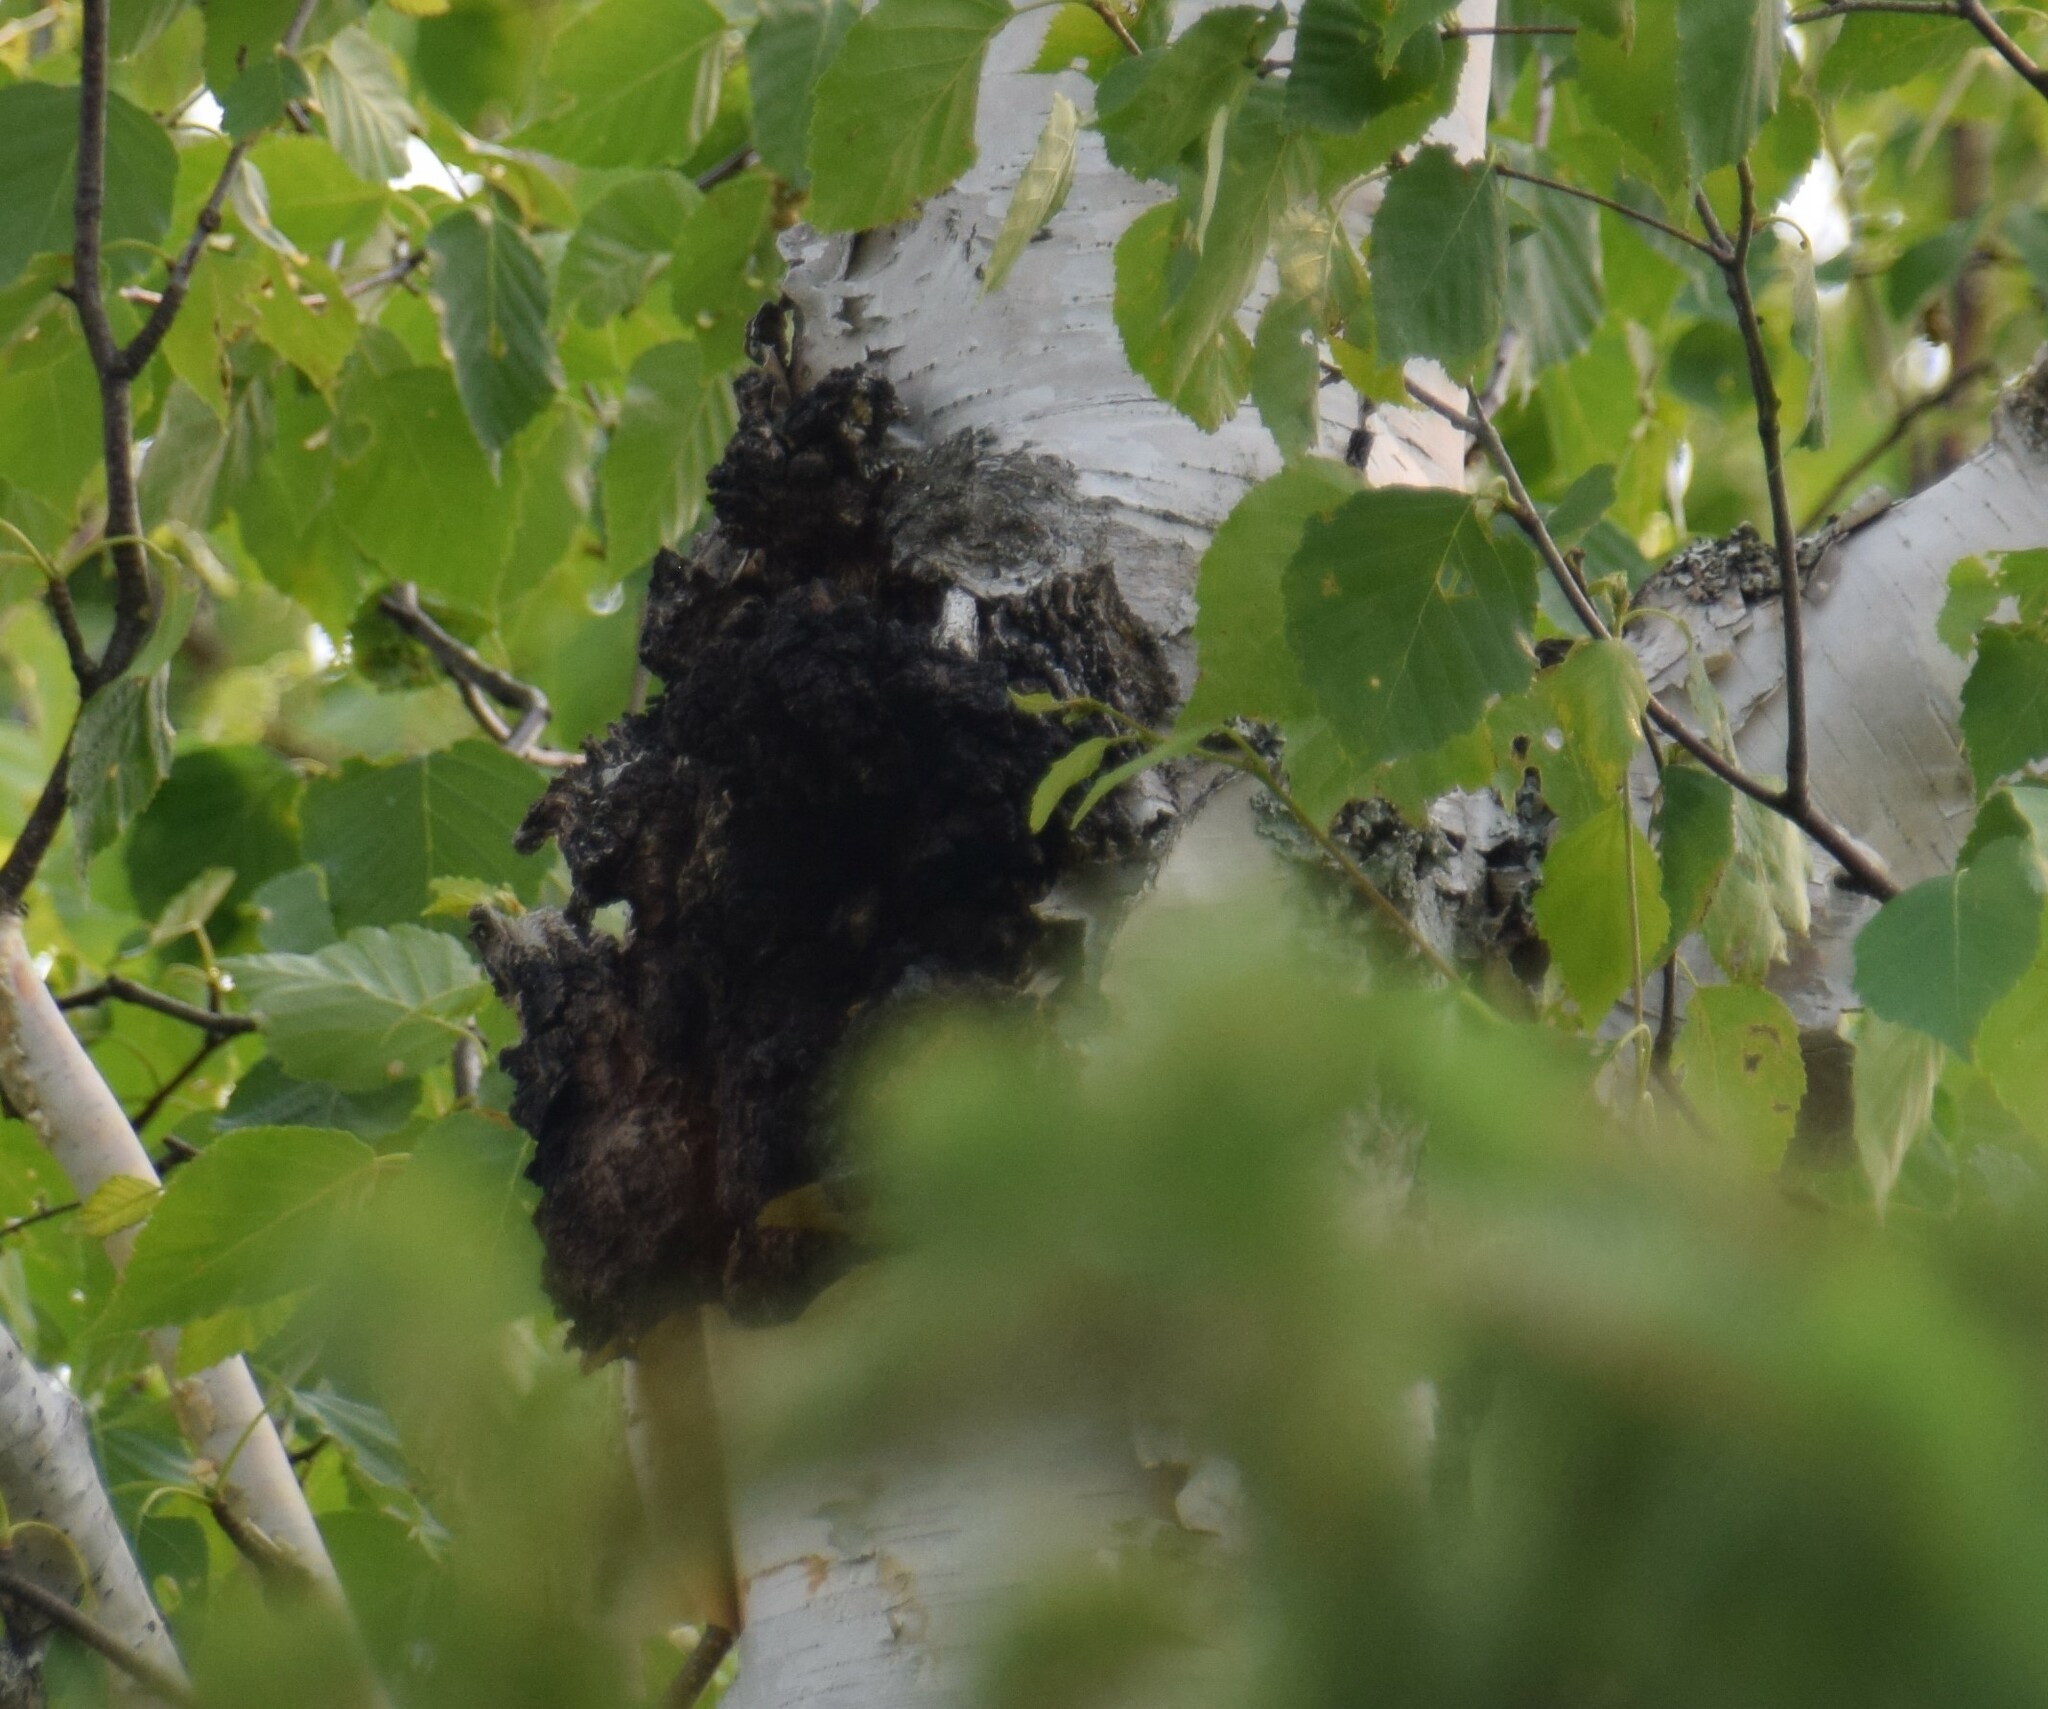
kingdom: Fungi
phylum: Basidiomycota
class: Agaricomycetes
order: Hymenochaetales
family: Hymenochaetaceae
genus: Inonotus
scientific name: Inonotus obliquus
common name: Chaga
